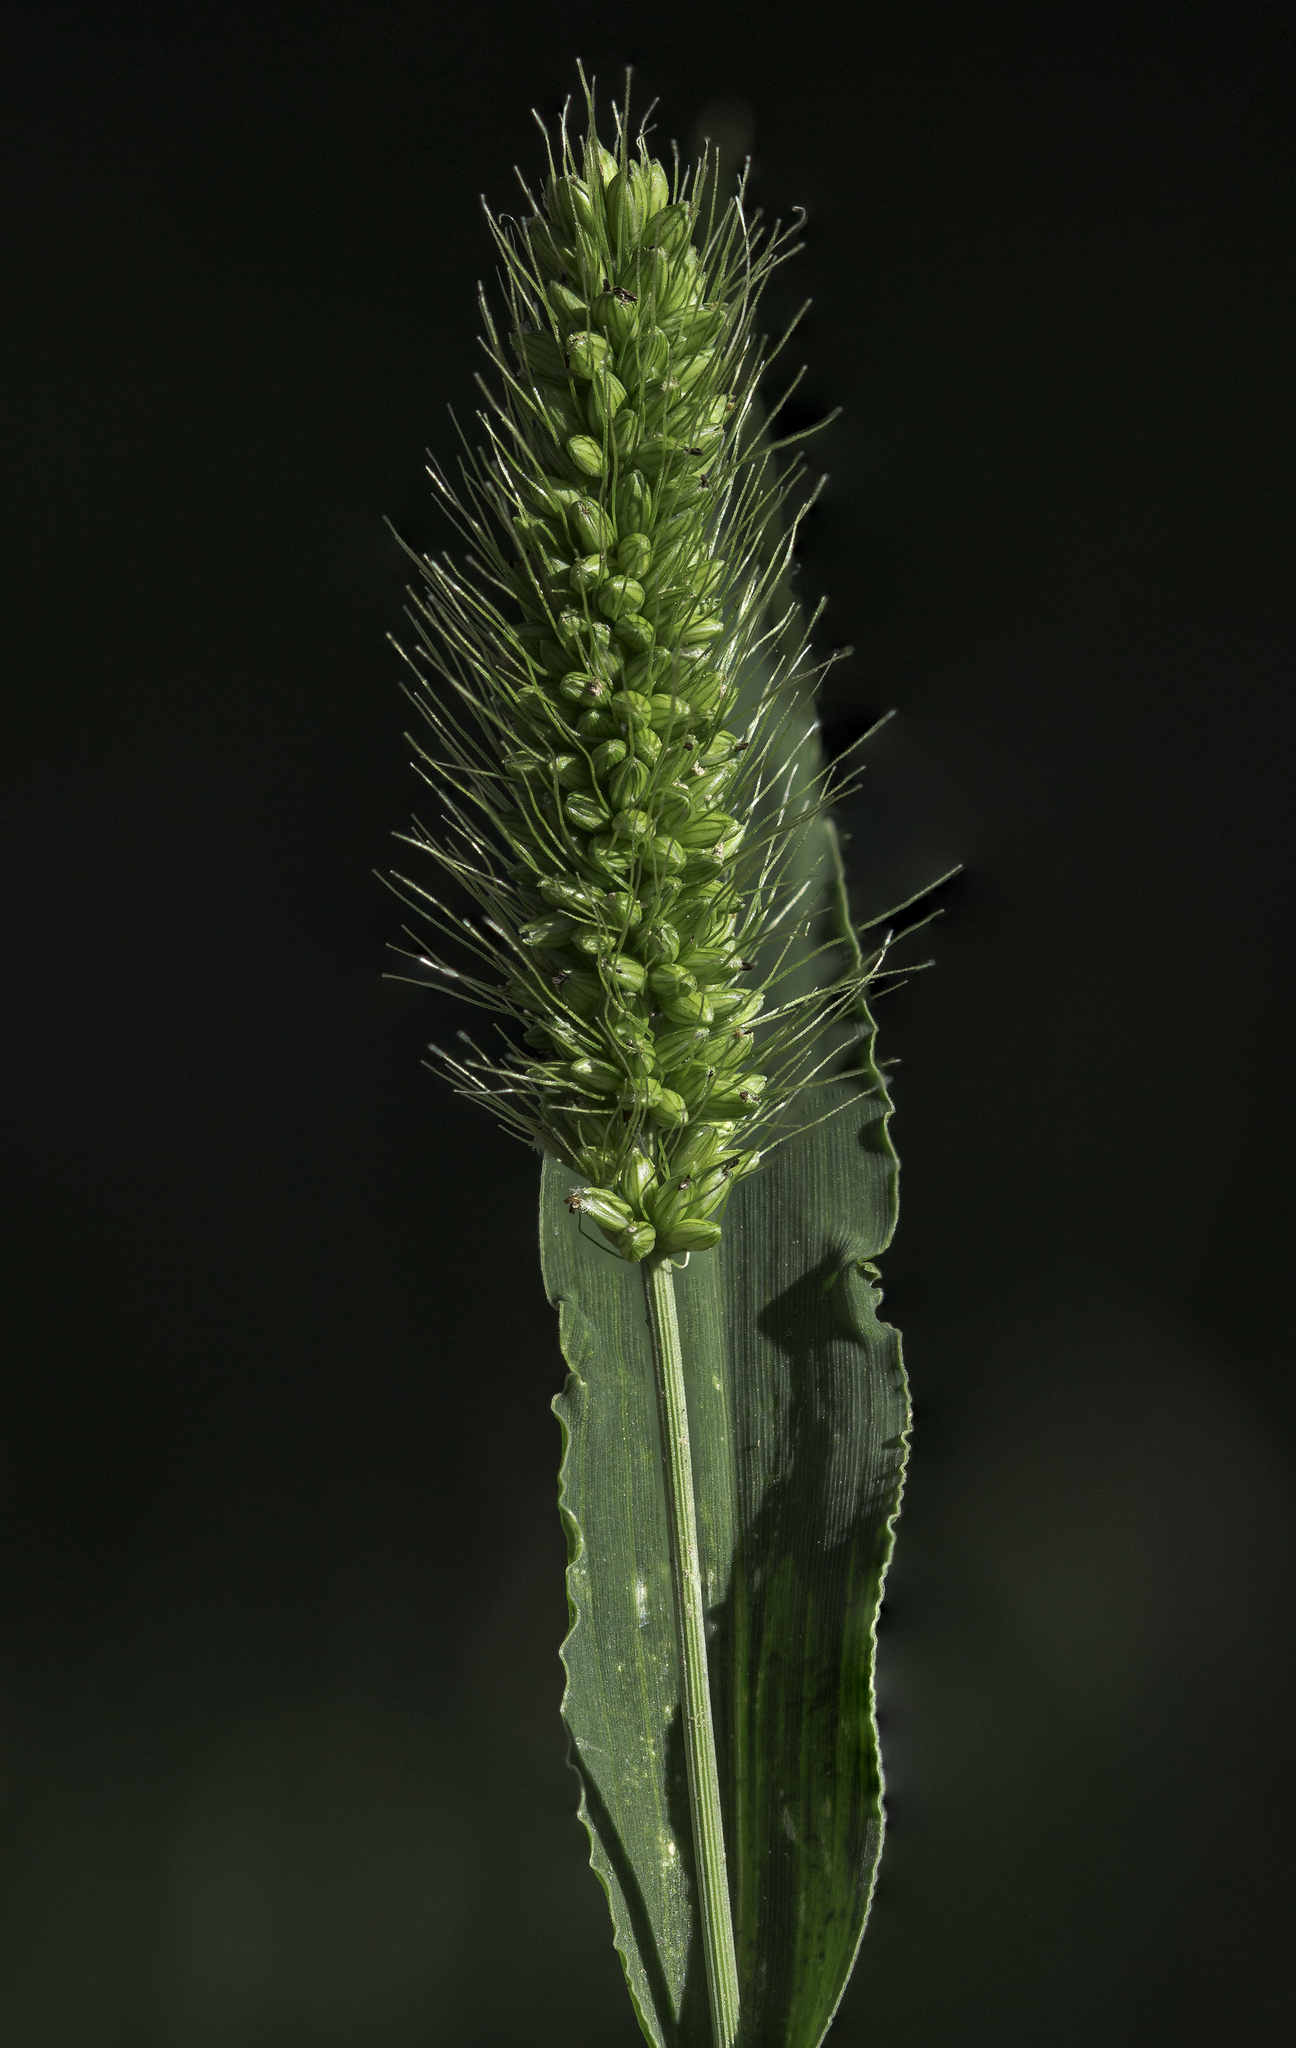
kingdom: Plantae
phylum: Tracheophyta
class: Liliopsida
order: Poales
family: Poaceae
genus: Setaria
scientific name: Setaria viridis
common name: Green bristlegrass
